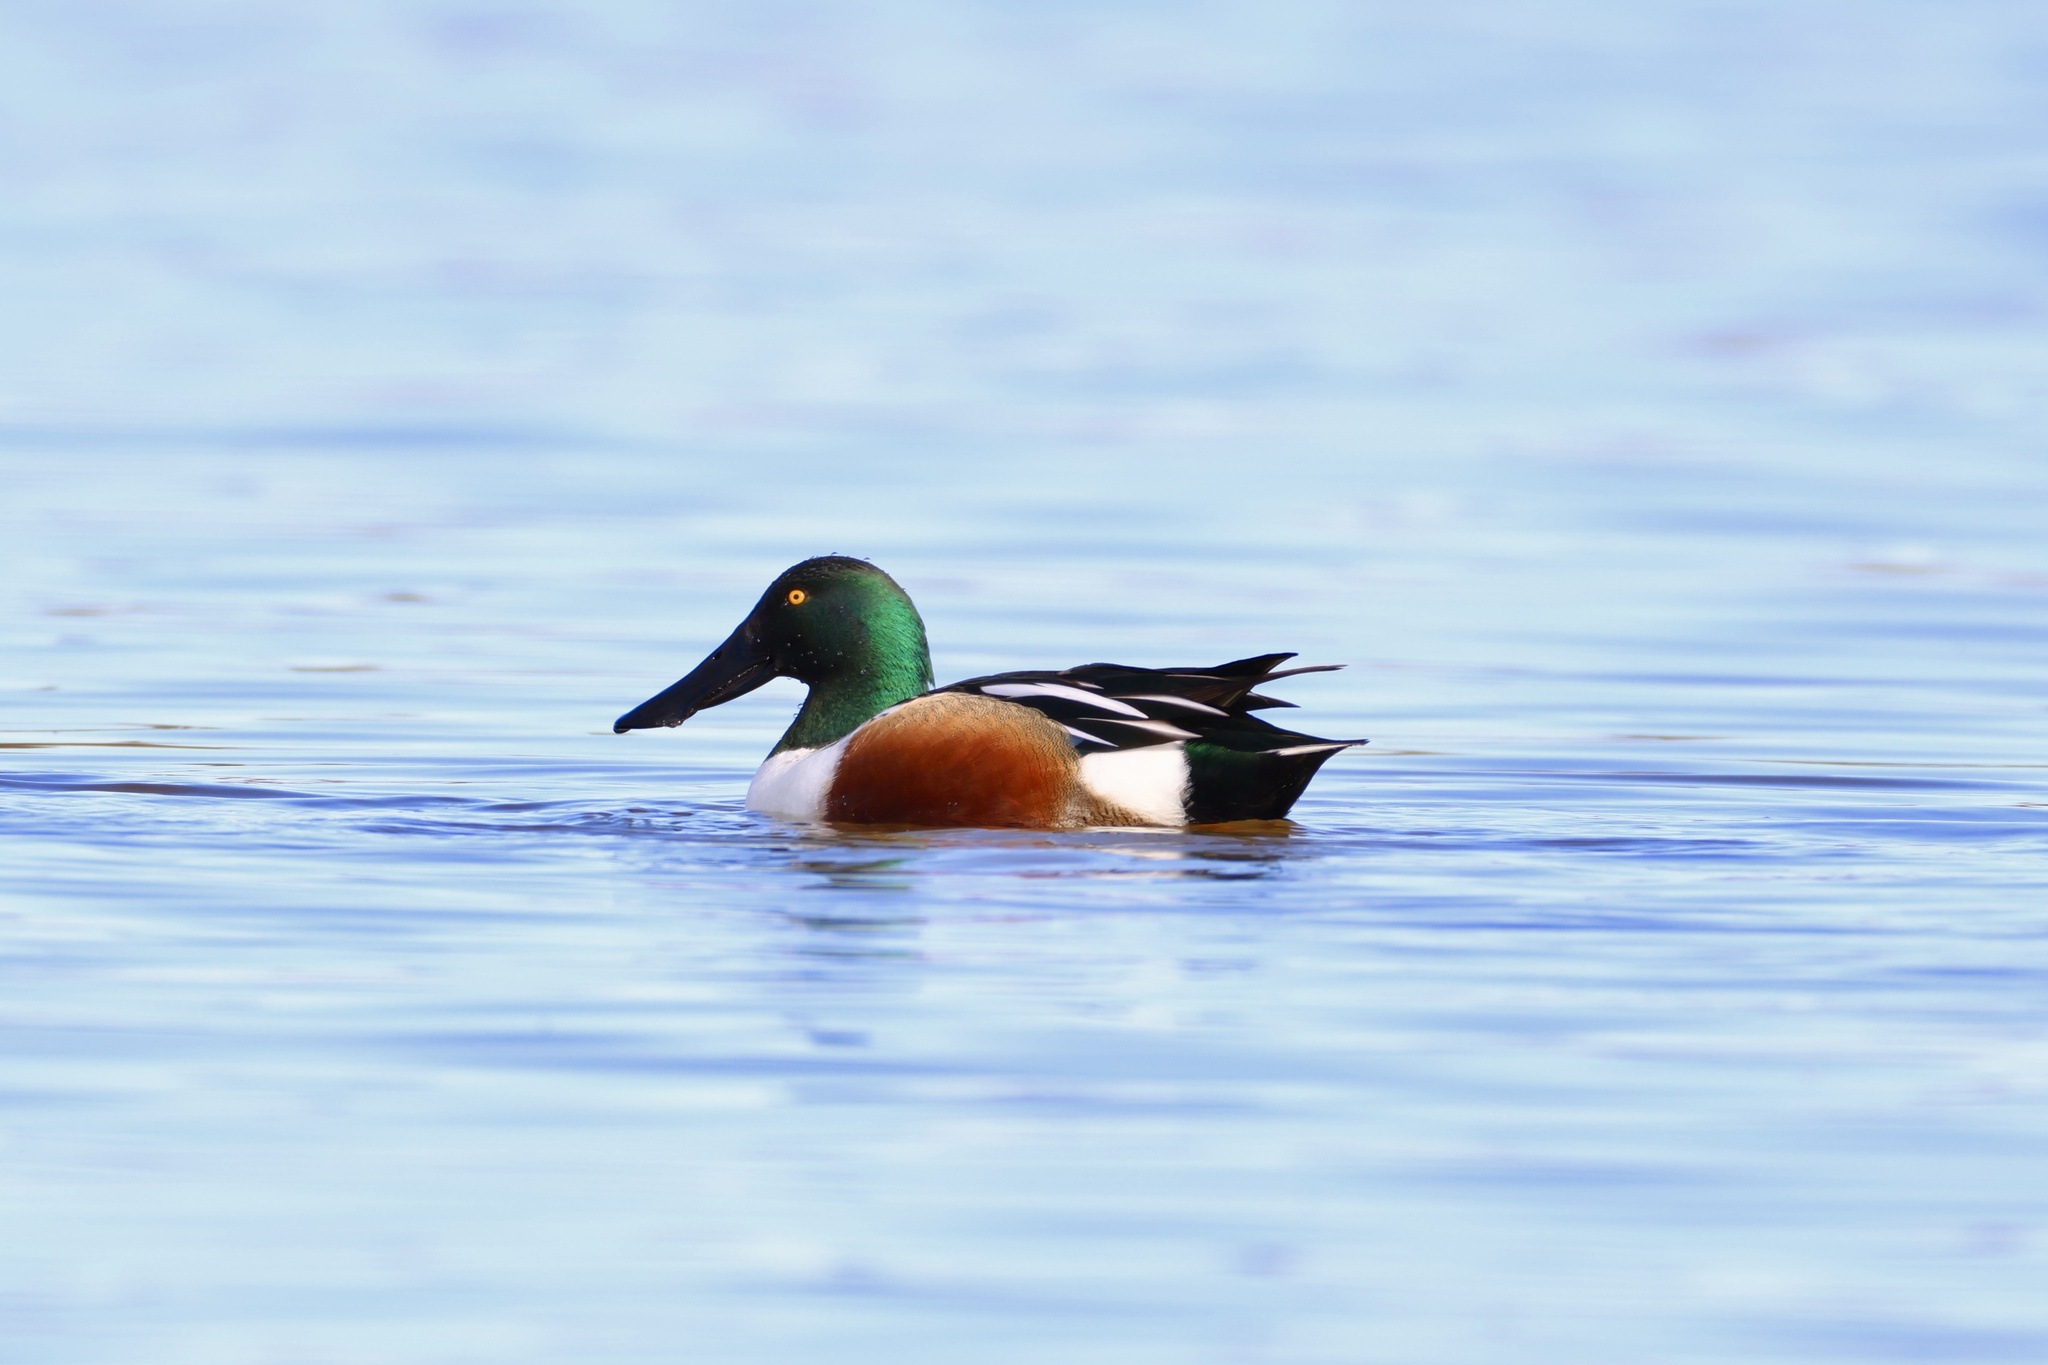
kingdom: Animalia
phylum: Chordata
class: Aves
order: Anseriformes
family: Anatidae
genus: Spatula
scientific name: Spatula clypeata
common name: Northern shoveler
